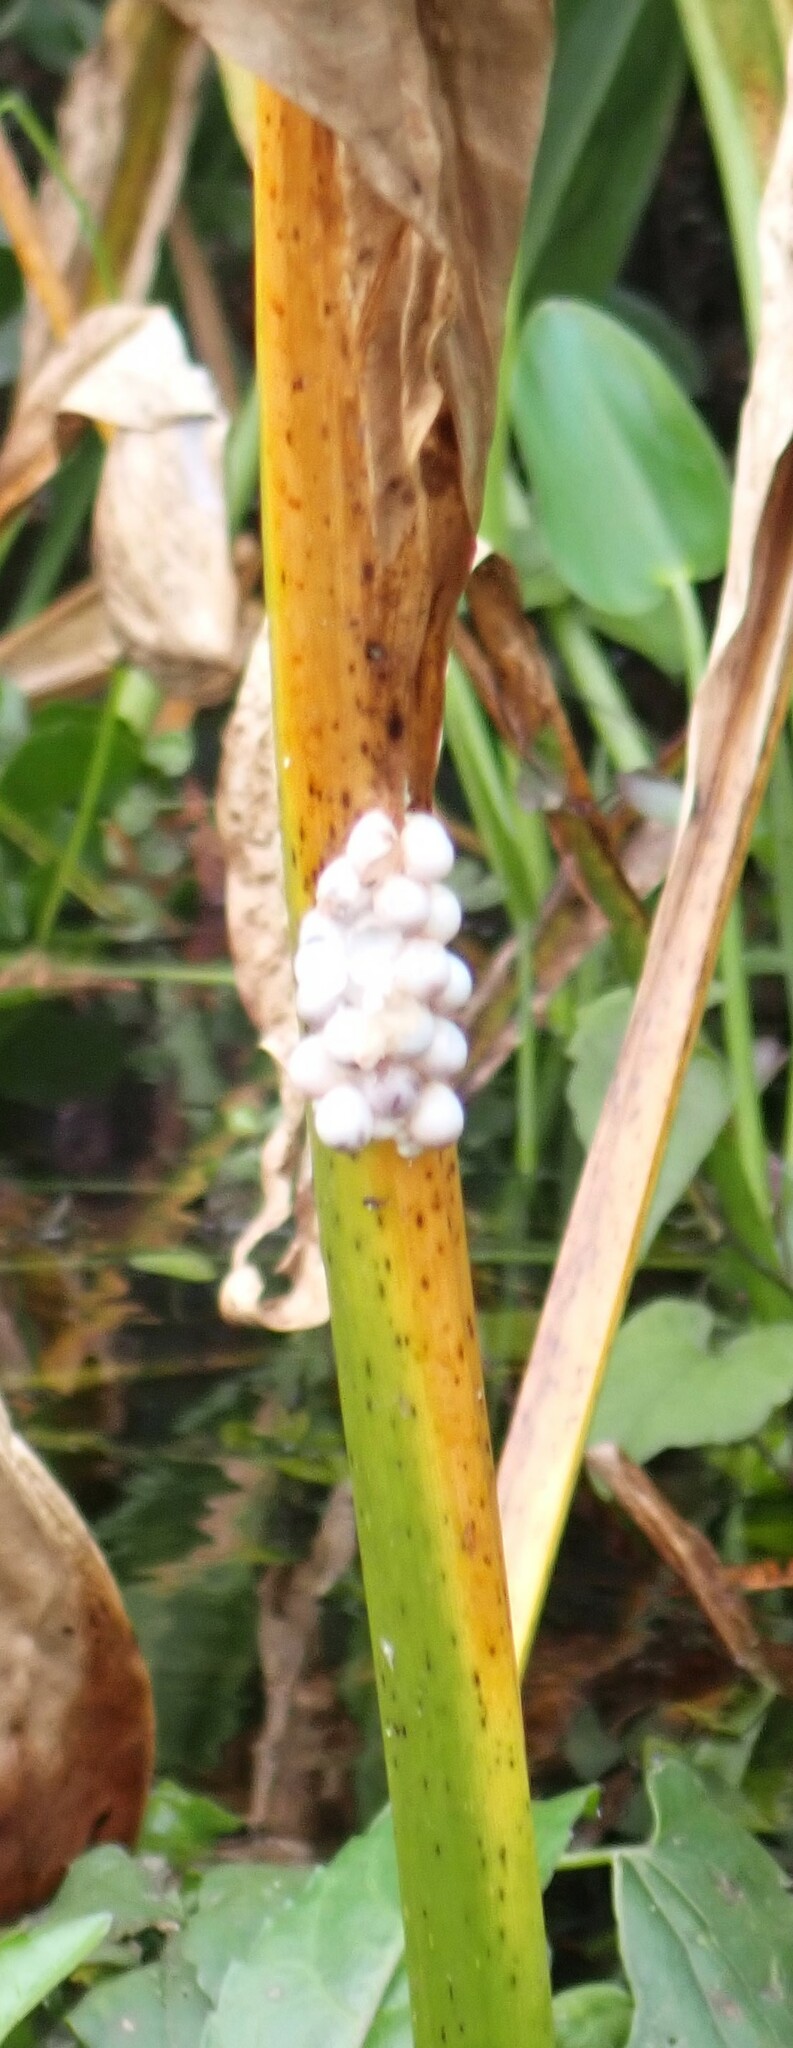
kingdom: Animalia
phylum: Mollusca
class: Gastropoda
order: Architaenioglossa
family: Ampullariidae
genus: Pomacea
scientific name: Pomacea paludosa
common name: Florida applesnail
